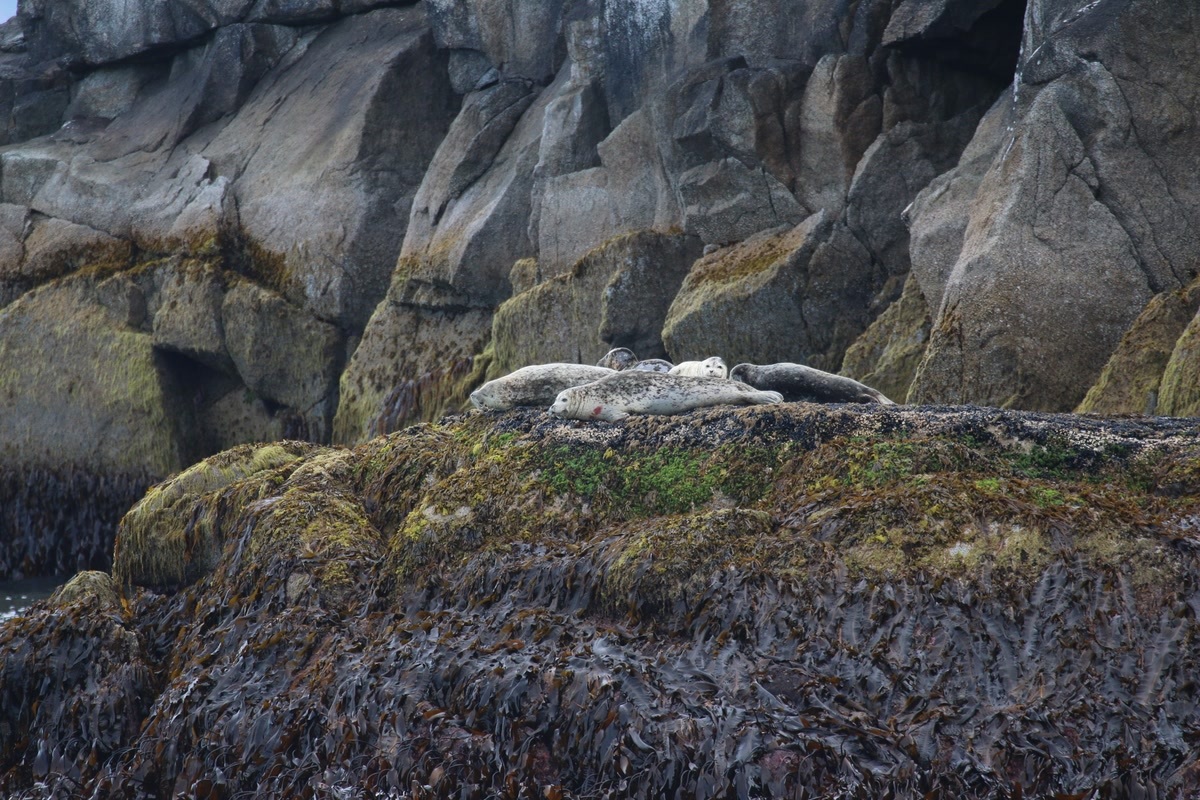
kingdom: Animalia
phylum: Chordata
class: Mammalia
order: Carnivora
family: Phocidae
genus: Phoca
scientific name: Phoca vitulina
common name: Harbor seal
